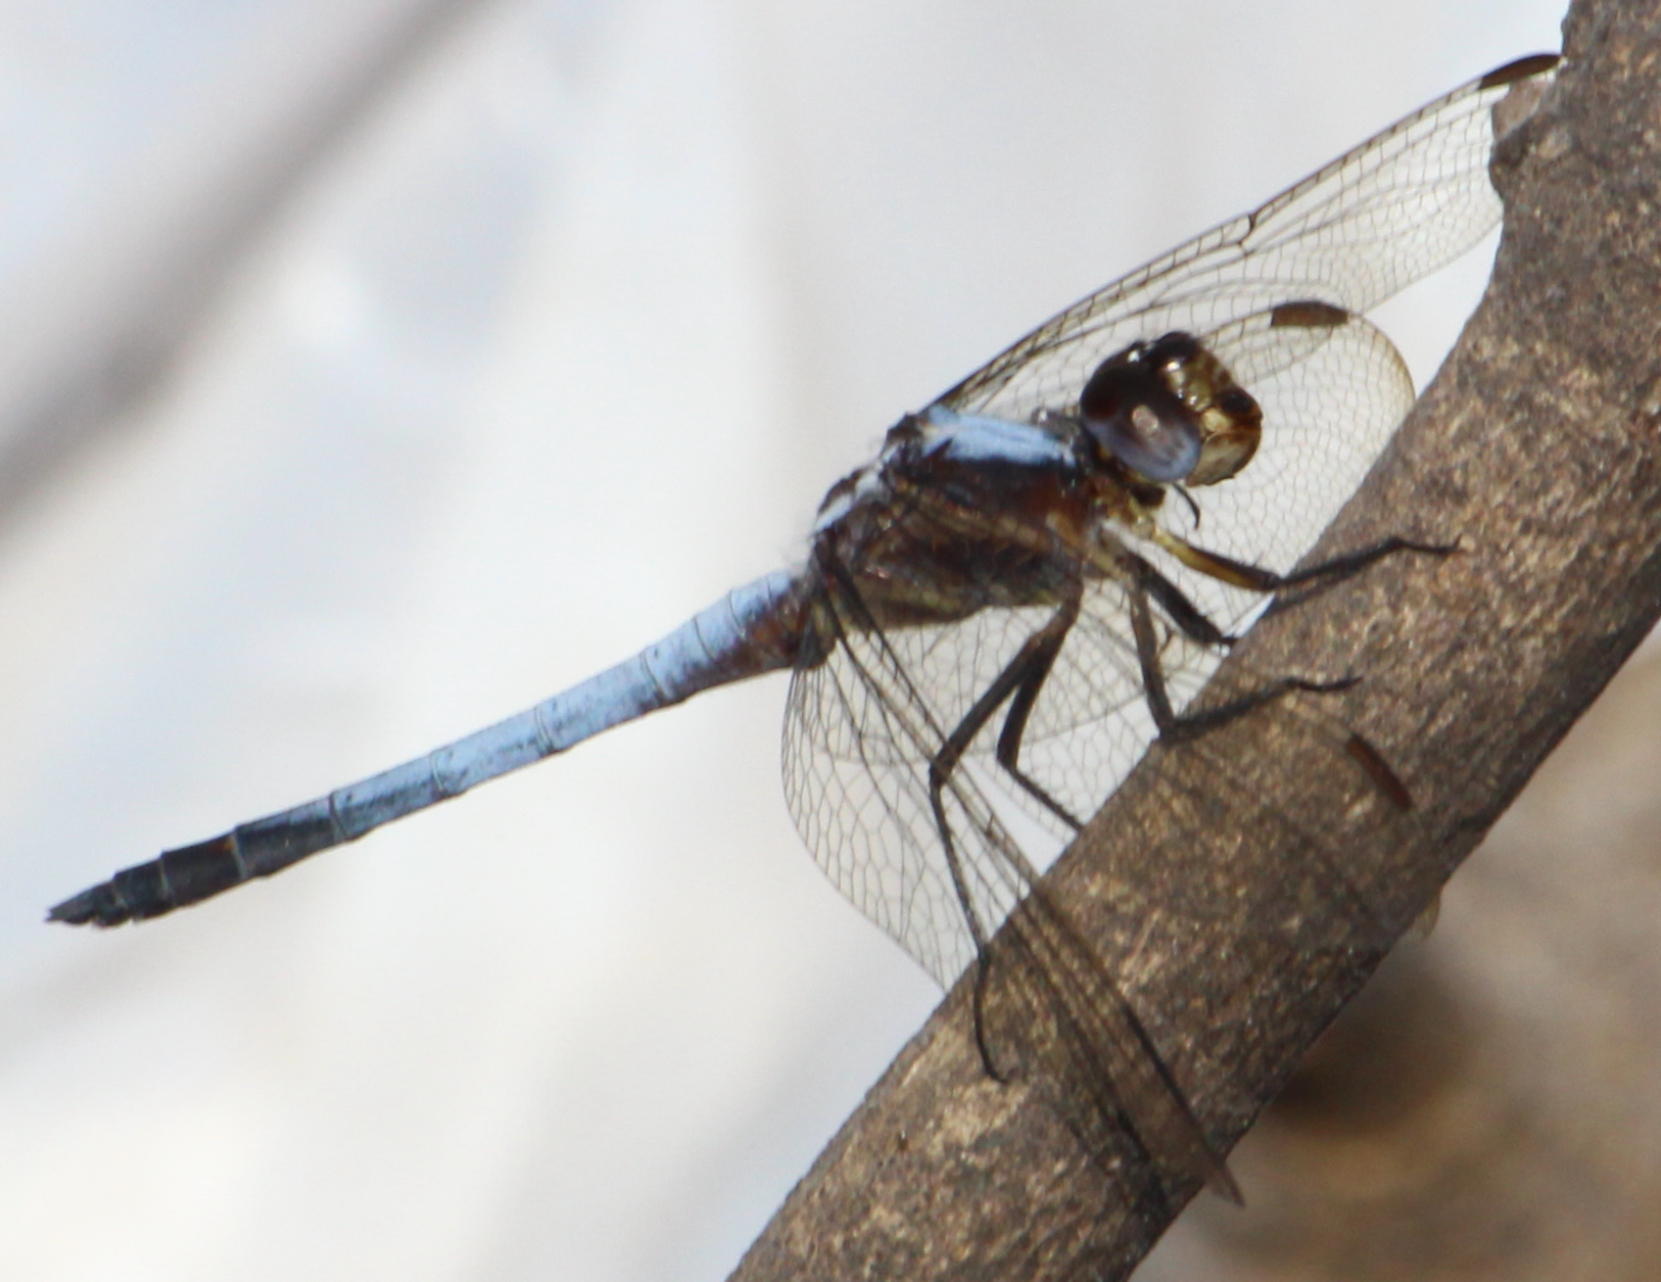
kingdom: Animalia
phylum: Arthropoda
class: Insecta
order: Odonata
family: Libellulidae
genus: Nesciothemis
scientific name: Nesciothemis farinosa
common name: Eastern blacktail
